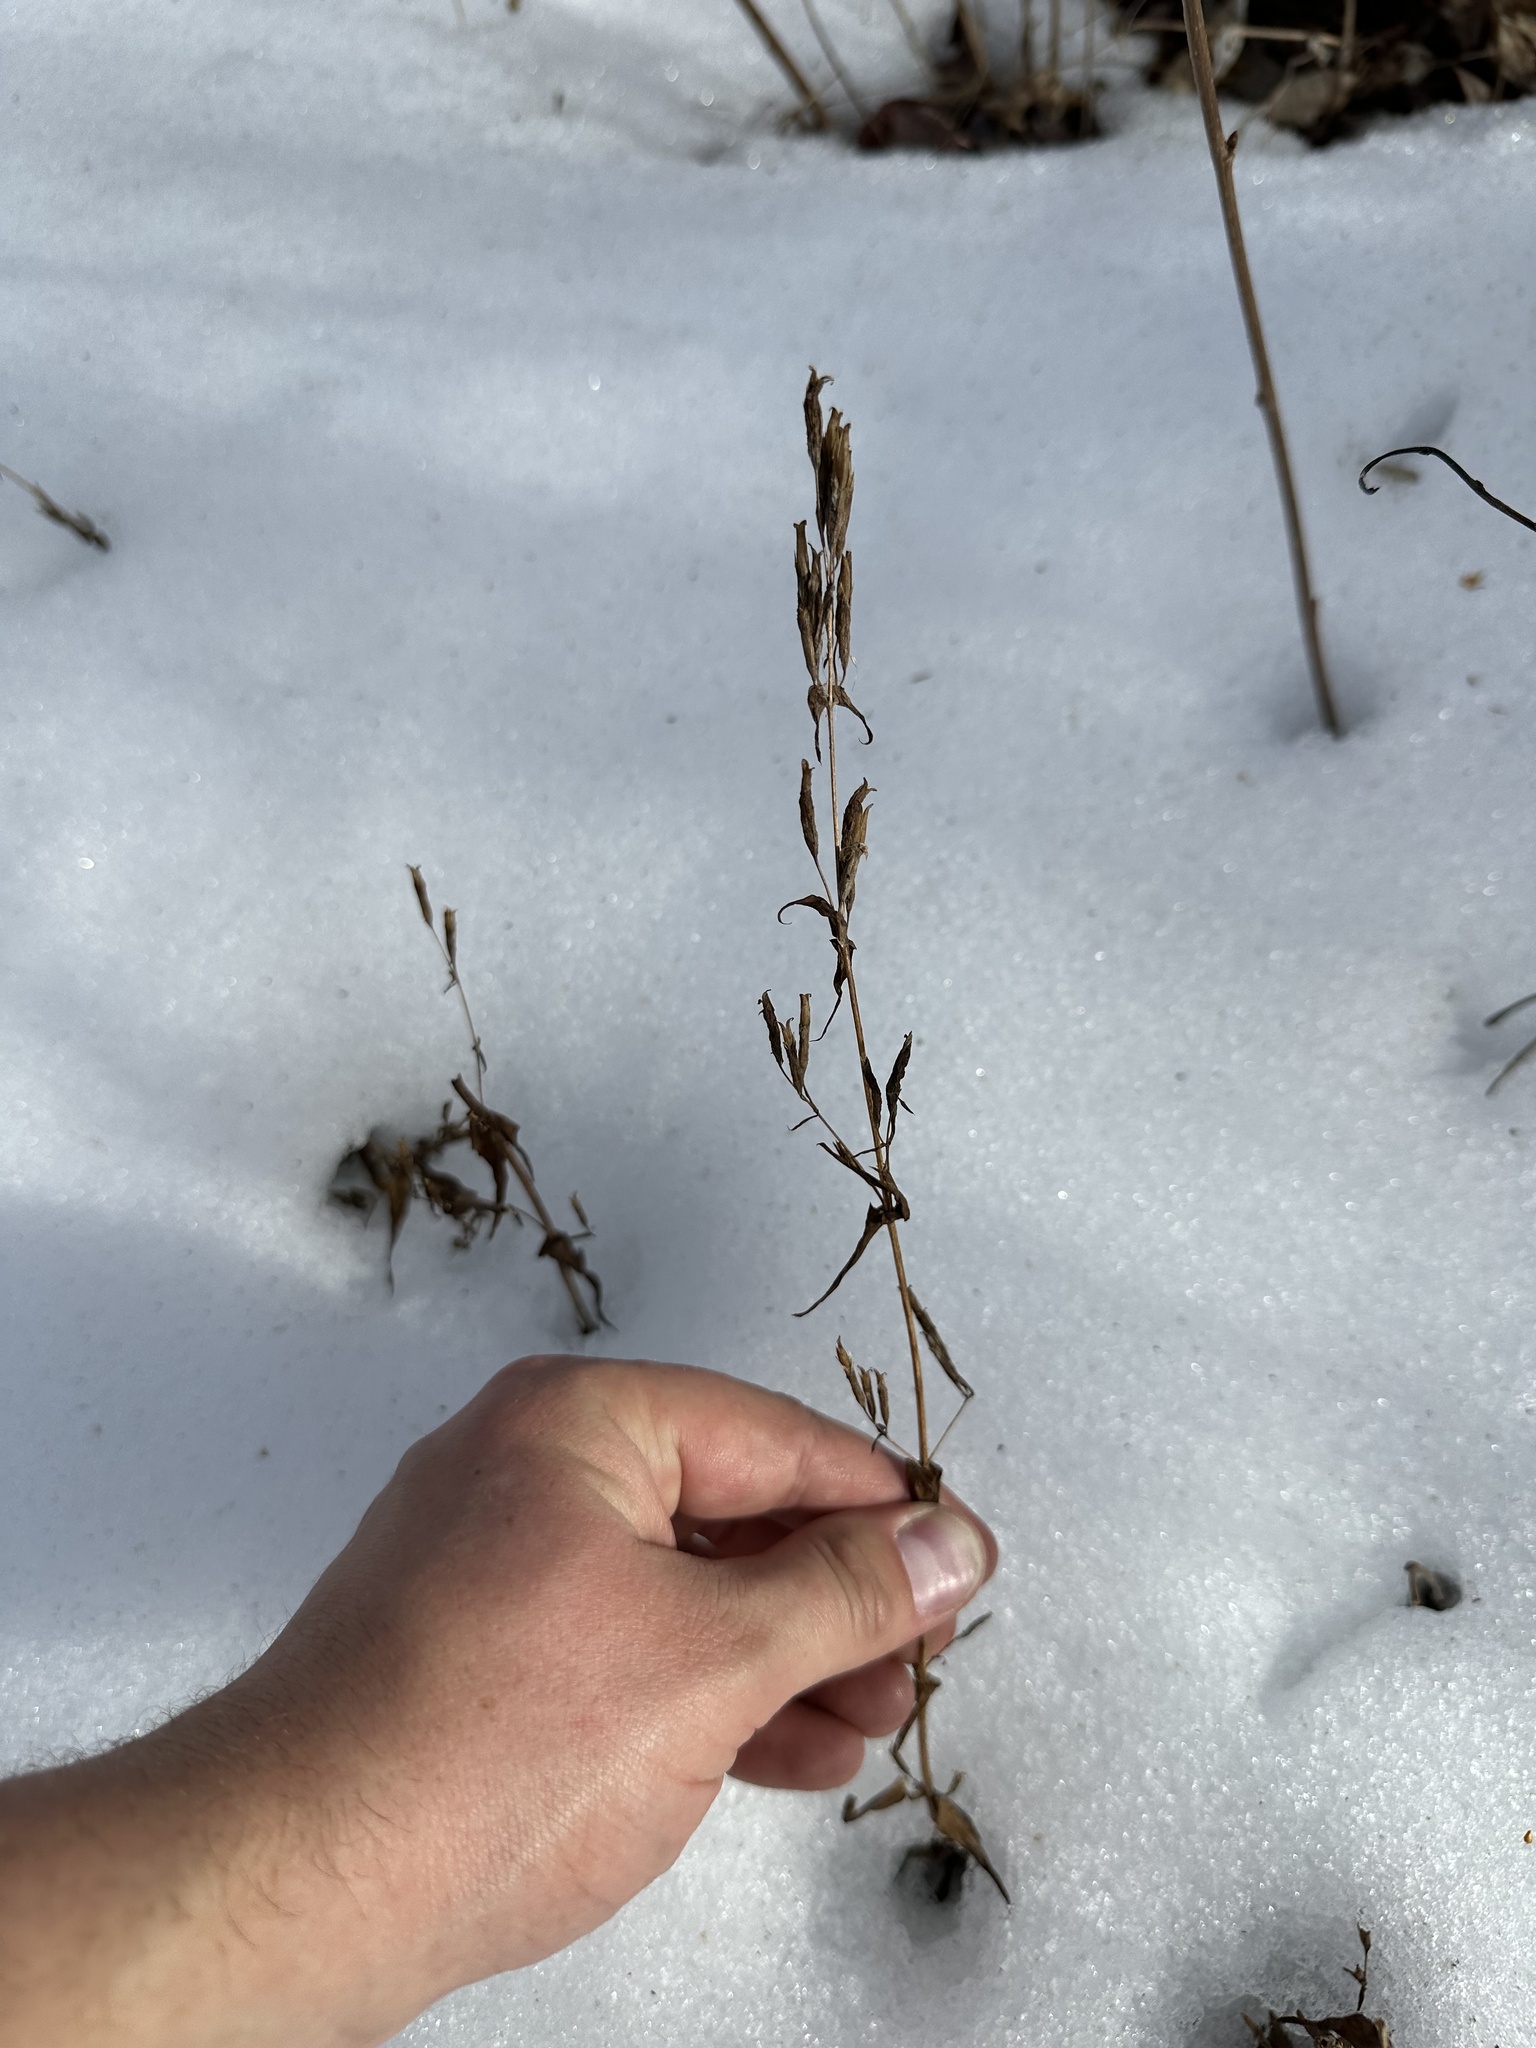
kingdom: Plantae
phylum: Tracheophyta
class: Magnoliopsida
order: Gentianales
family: Gentianaceae
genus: Gentianella
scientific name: Gentianella amarella
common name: Autumn gentian
